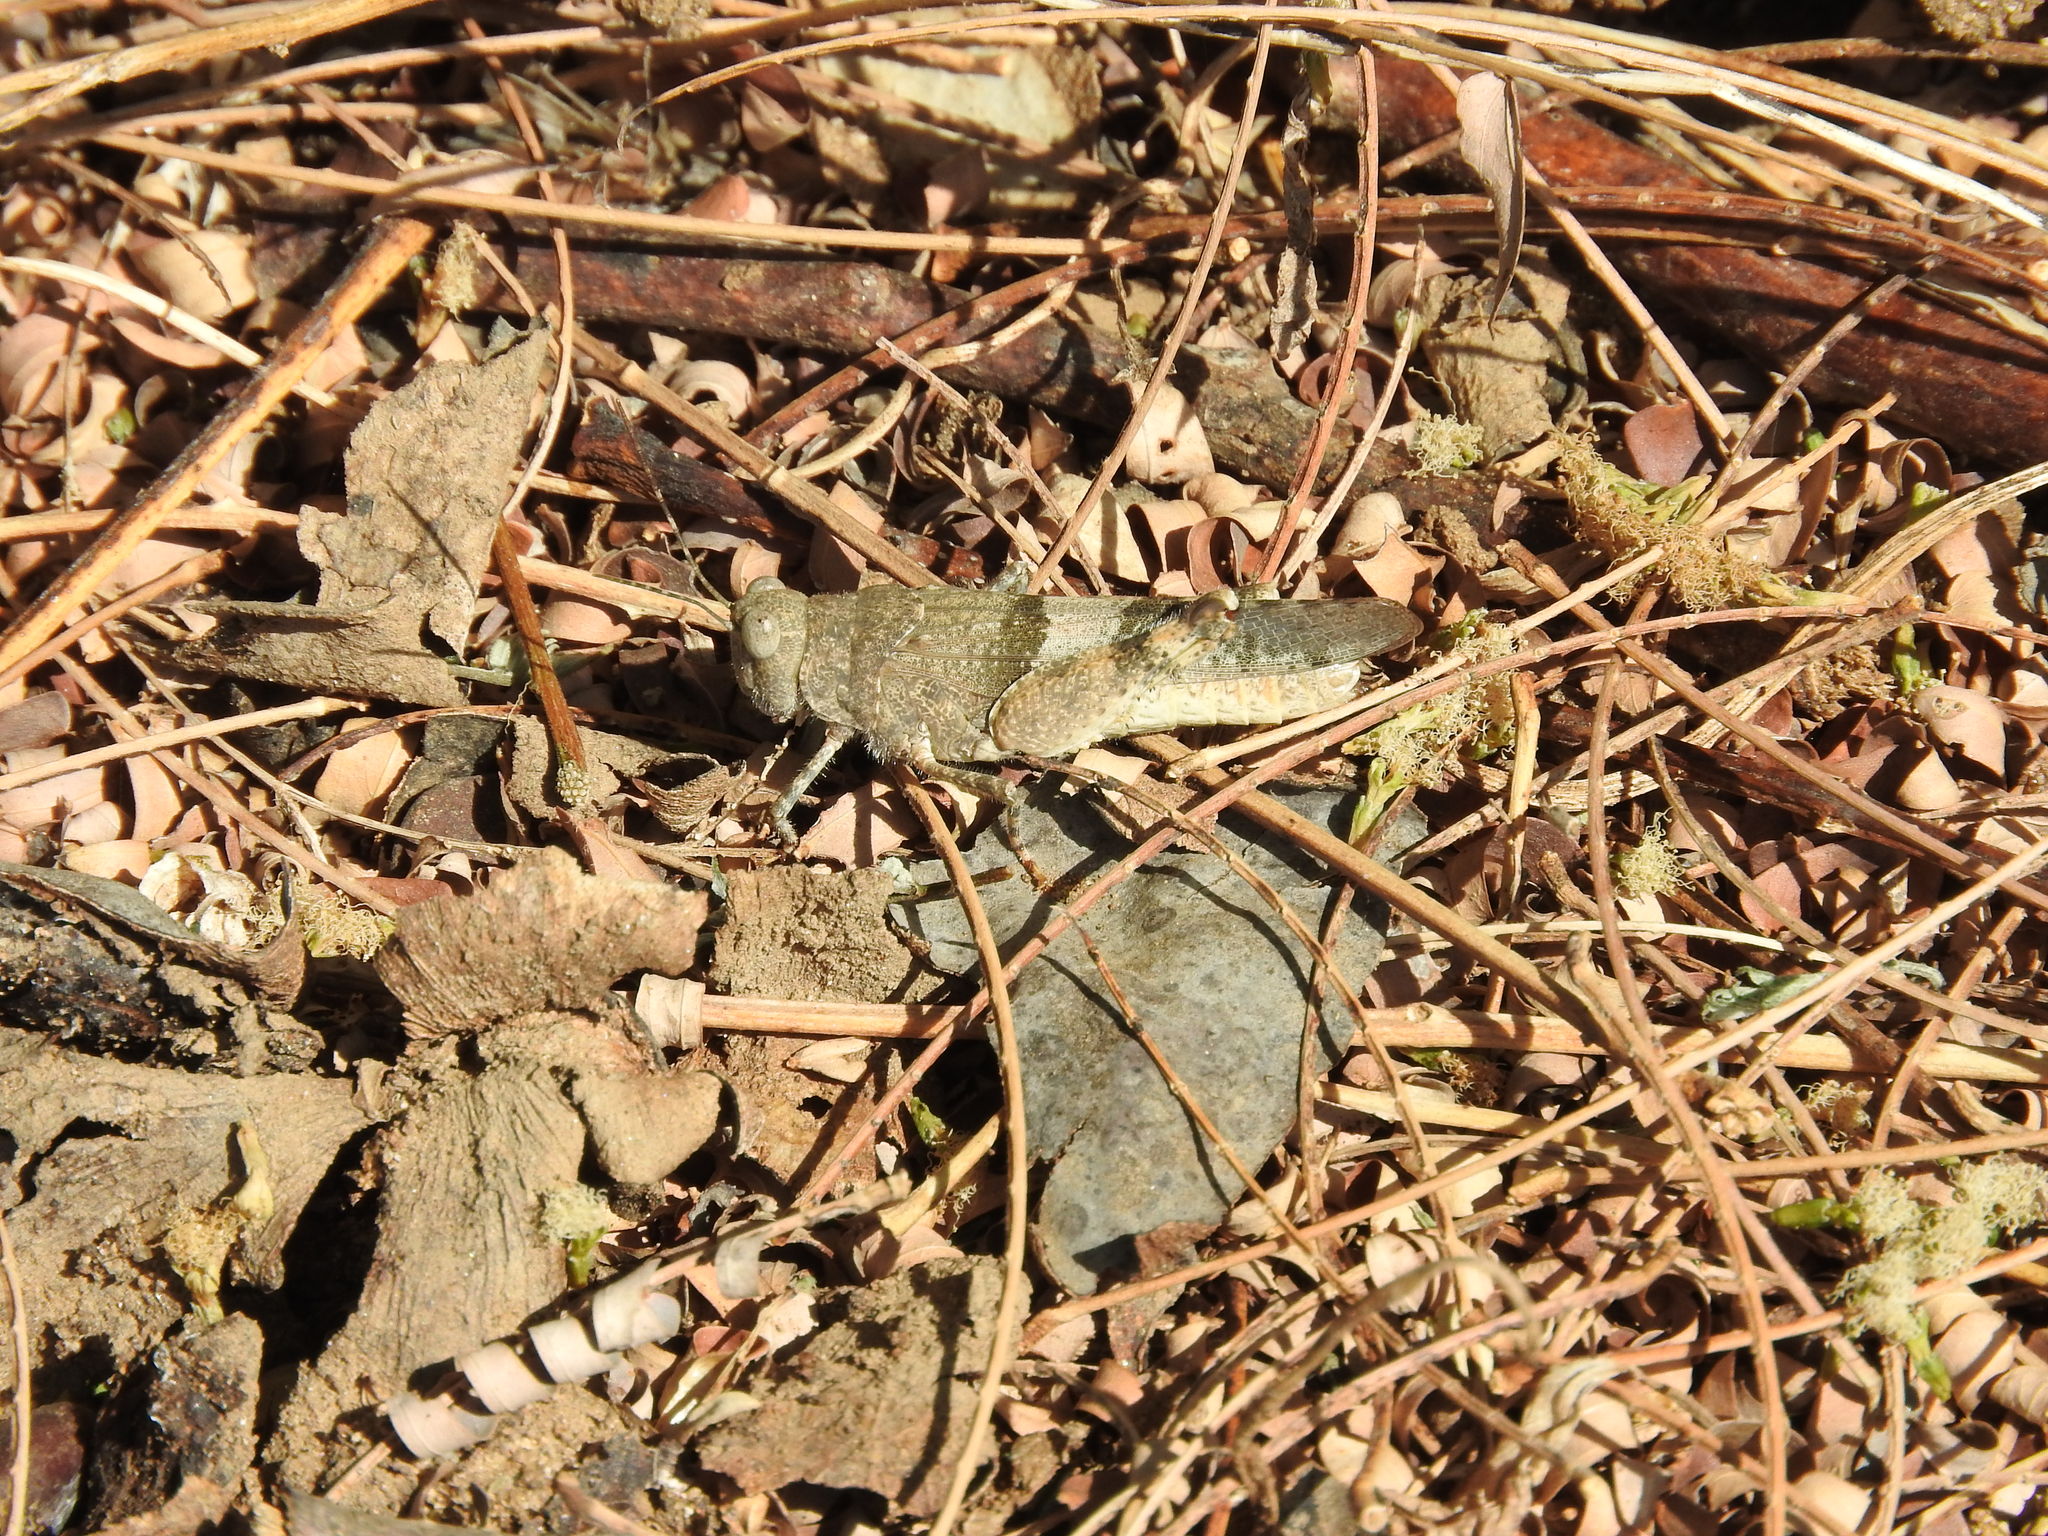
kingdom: Animalia
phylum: Arthropoda
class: Insecta
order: Orthoptera
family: Acrididae
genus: Heliastus
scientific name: Heliastus benjamini
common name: Arroyo grasshopper
